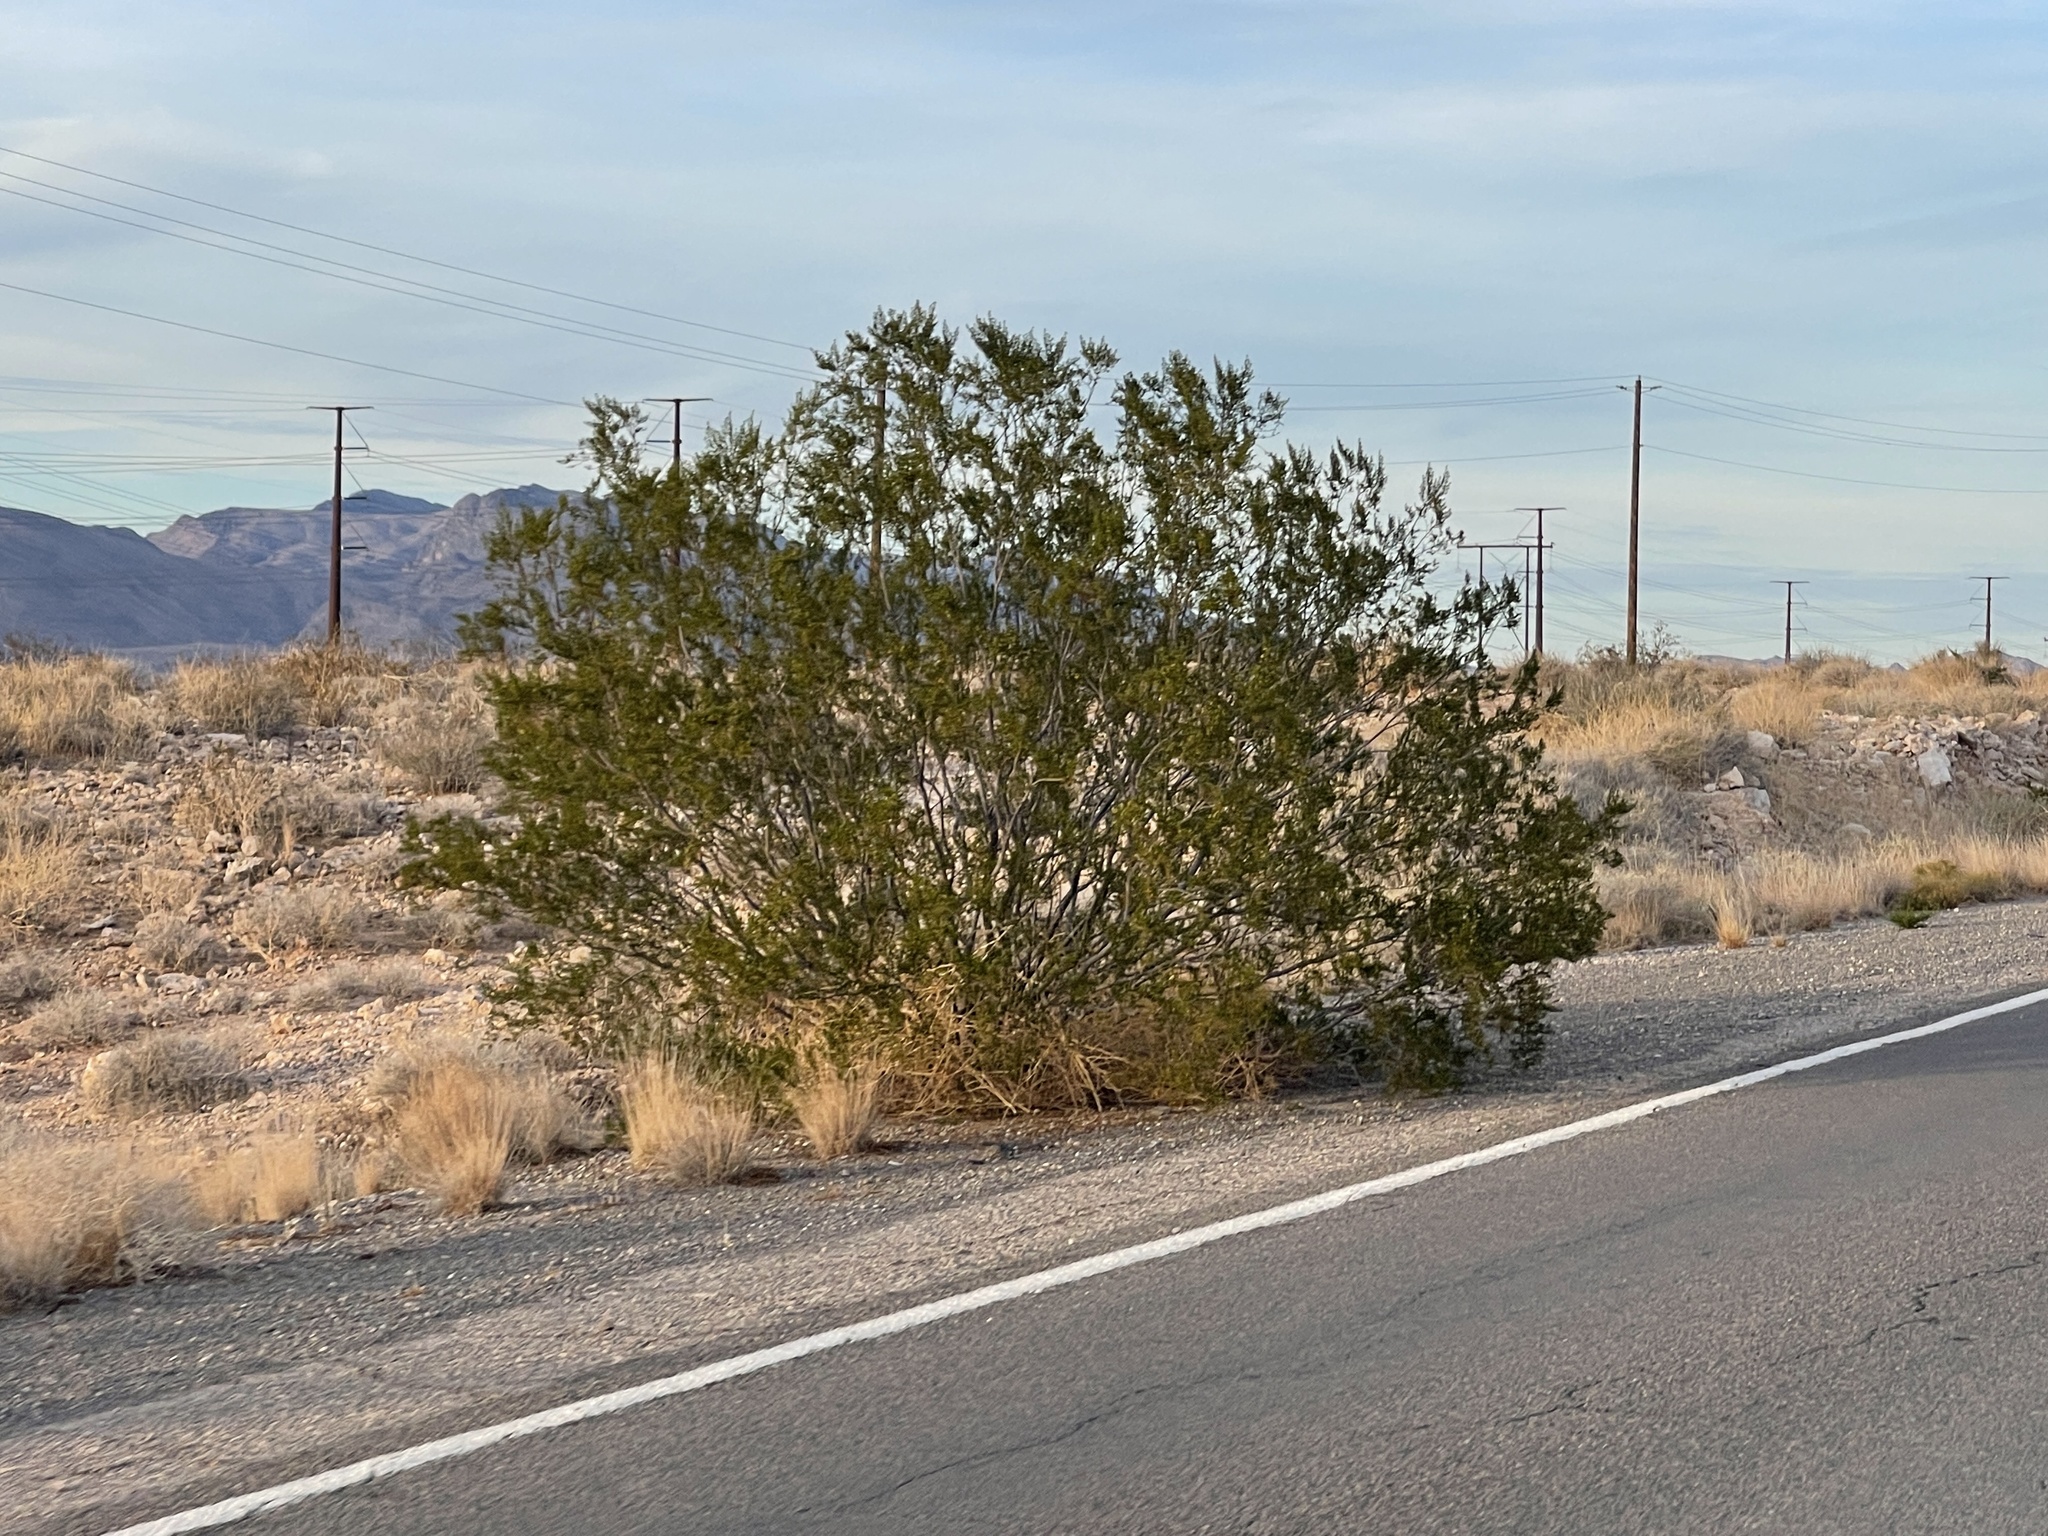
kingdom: Plantae
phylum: Tracheophyta
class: Magnoliopsida
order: Zygophyllales
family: Zygophyllaceae
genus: Larrea
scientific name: Larrea tridentata
